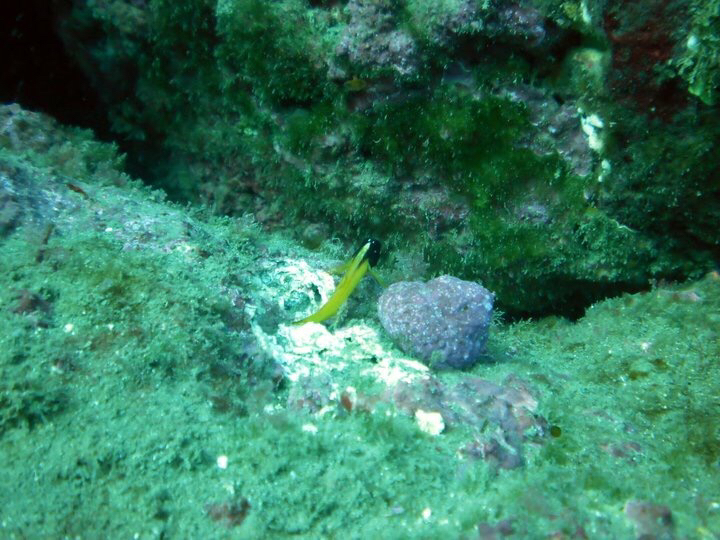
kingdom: Animalia
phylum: Chordata
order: Perciformes
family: Tripterygiidae
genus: Forsterygion
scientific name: Forsterygion flavonigrum
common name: Yellow-and-black triplefin
